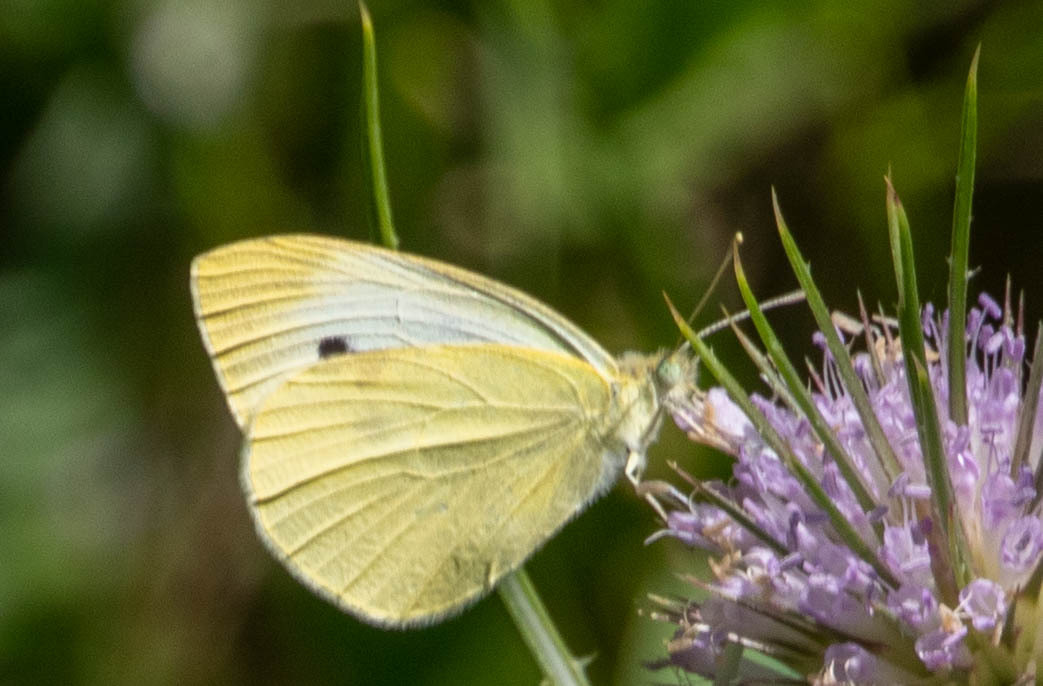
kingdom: Animalia
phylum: Arthropoda
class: Insecta
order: Lepidoptera
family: Pieridae
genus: Pieris
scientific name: Pieris rapae
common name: Small white
